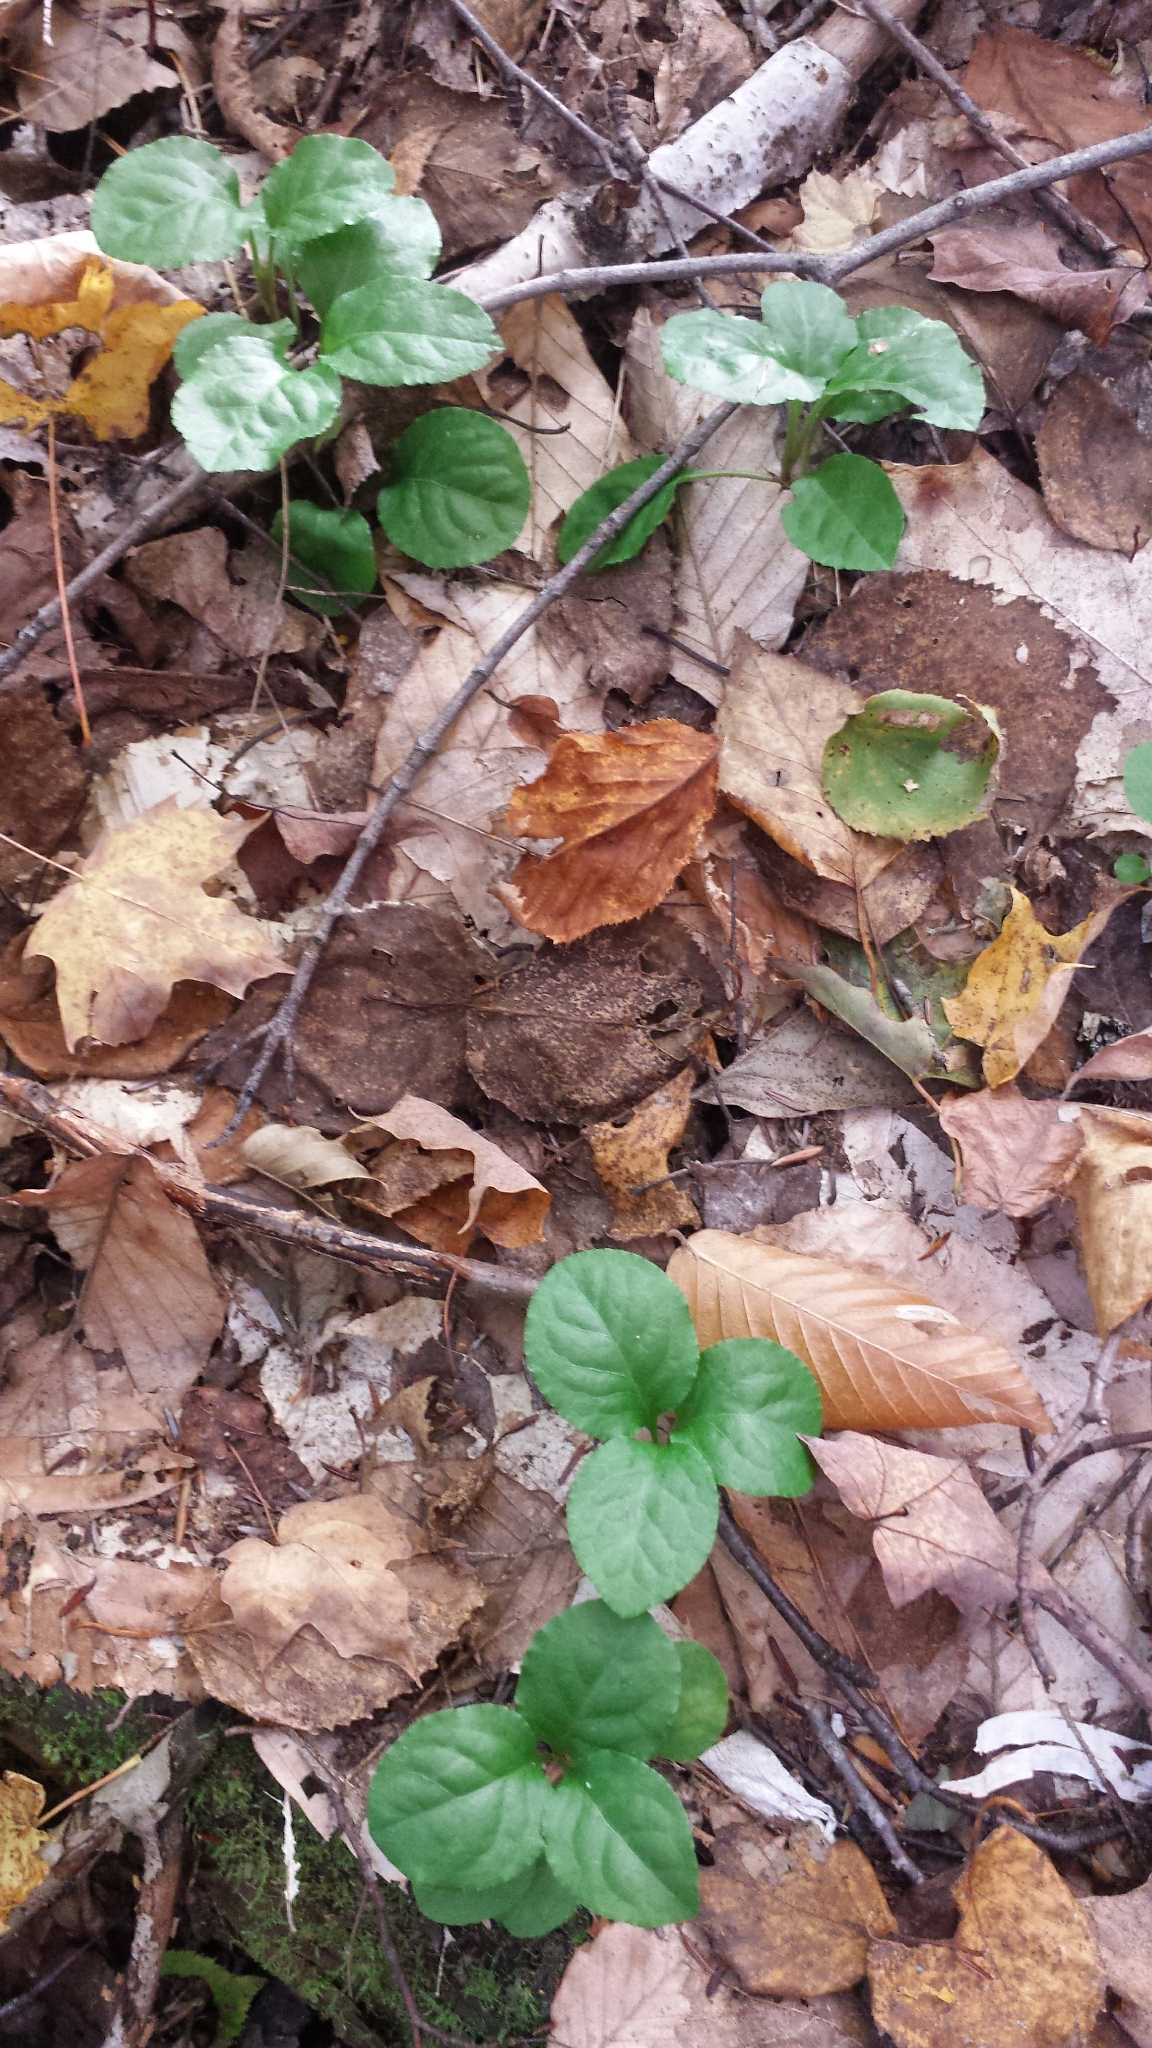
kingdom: Plantae
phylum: Tracheophyta
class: Magnoliopsida
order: Ericales
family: Ericaceae
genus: Pyrola
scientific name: Pyrola elliptica
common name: Shinleaf
